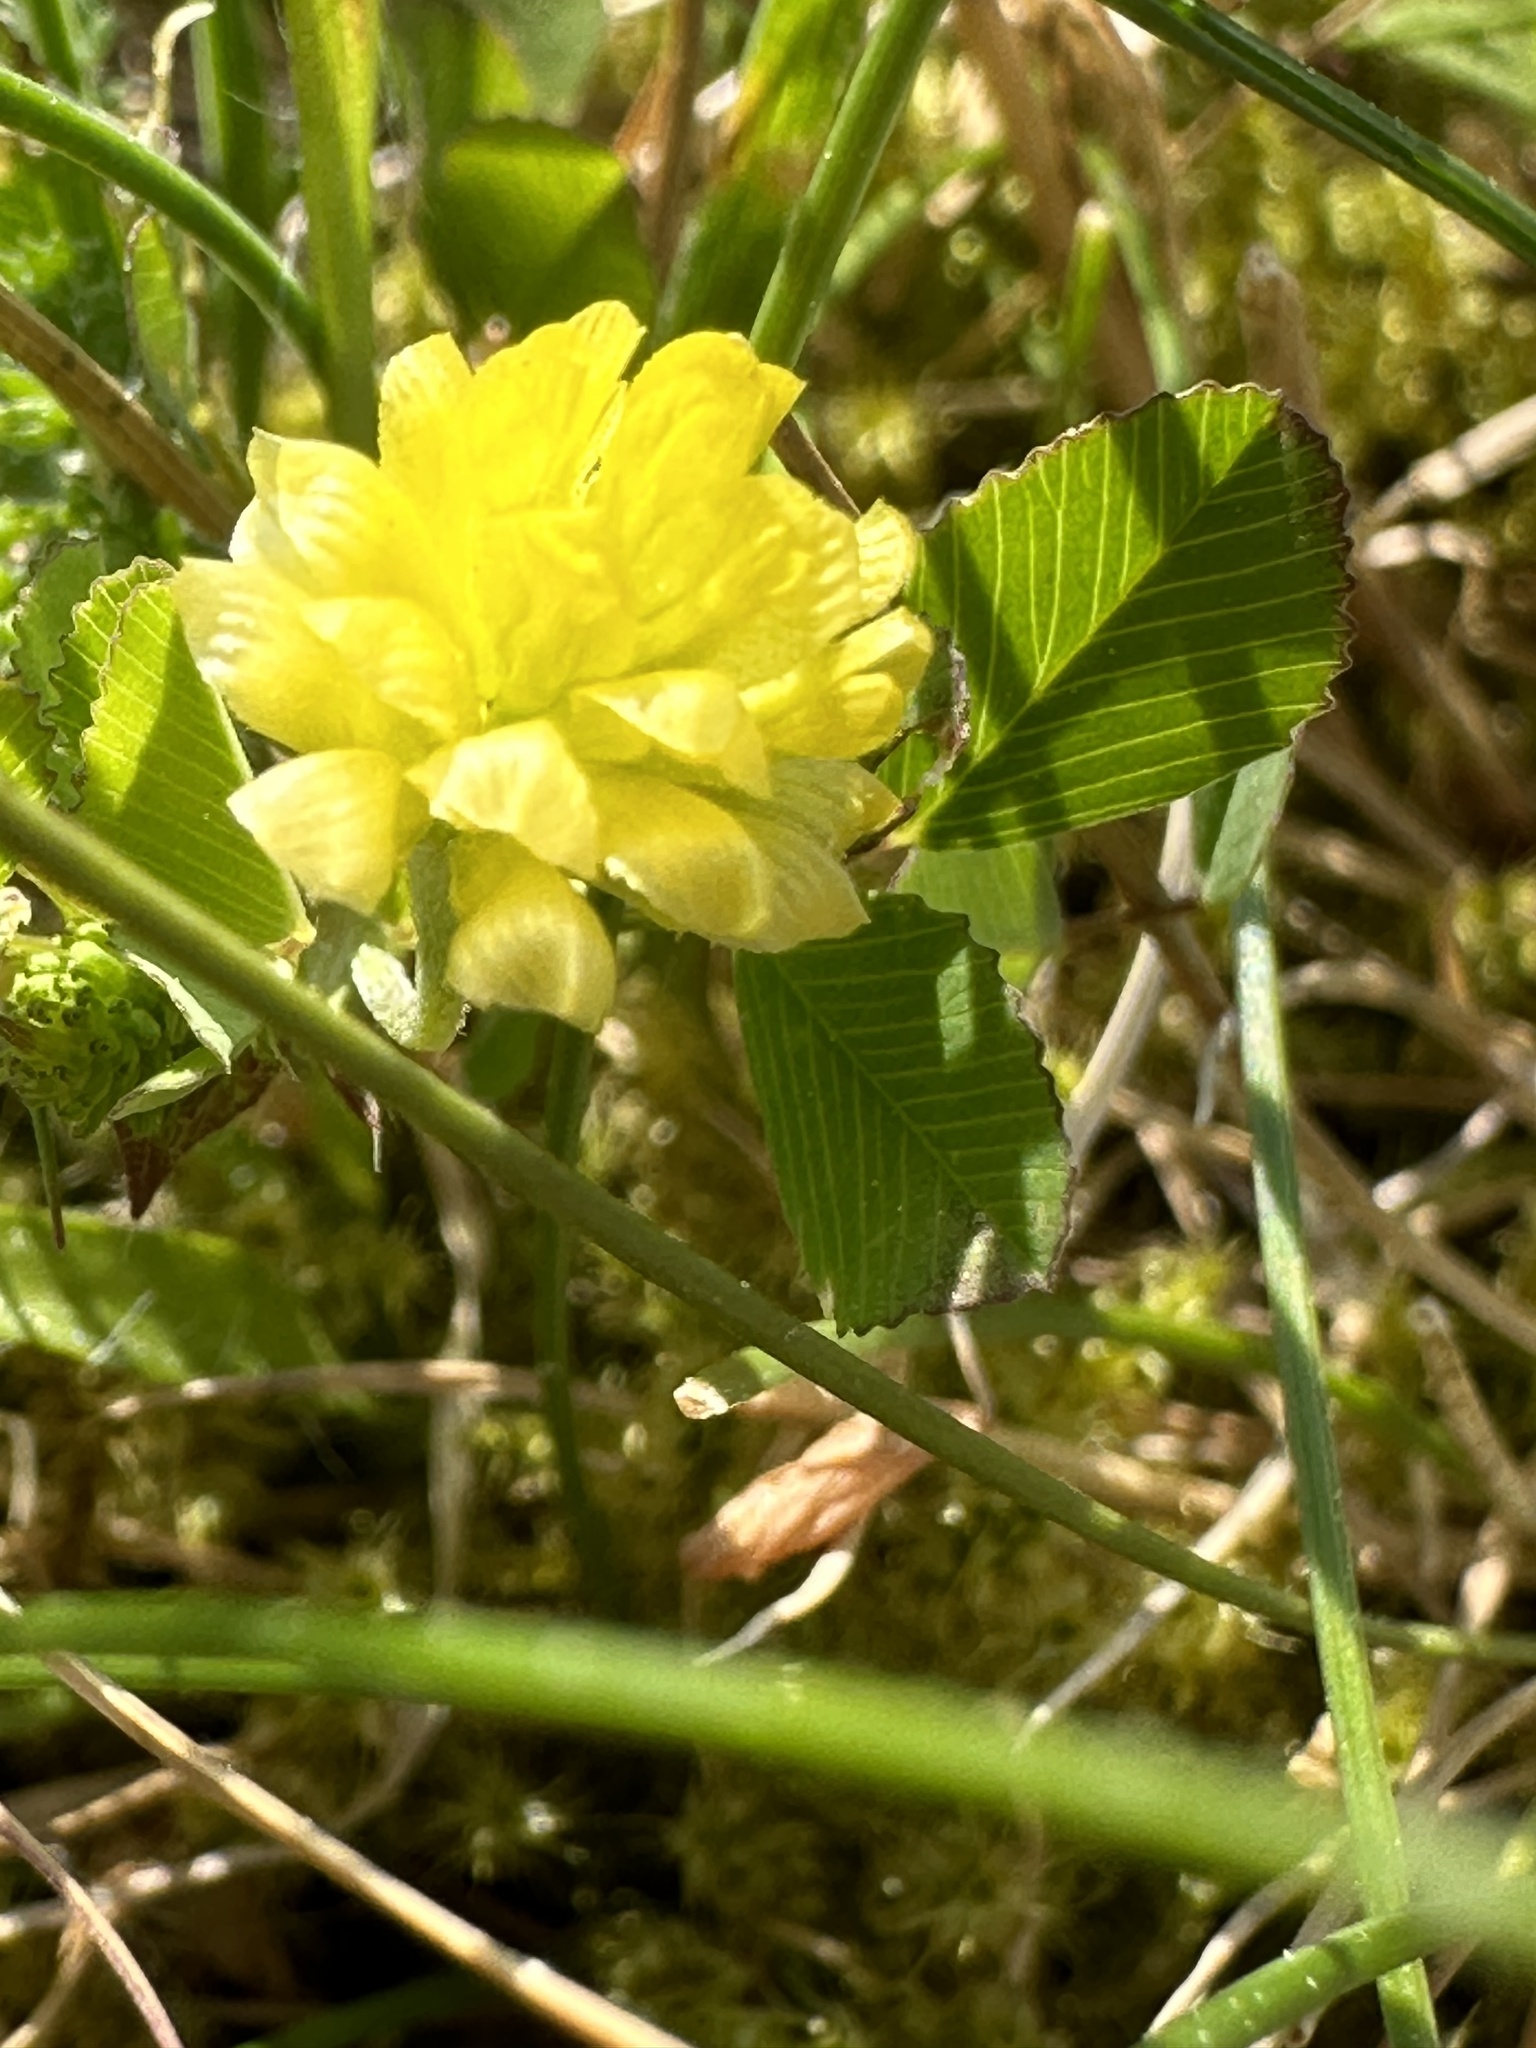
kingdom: Plantae
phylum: Tracheophyta
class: Magnoliopsida
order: Fabales
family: Fabaceae
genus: Trifolium
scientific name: Trifolium campestre
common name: Field clover
